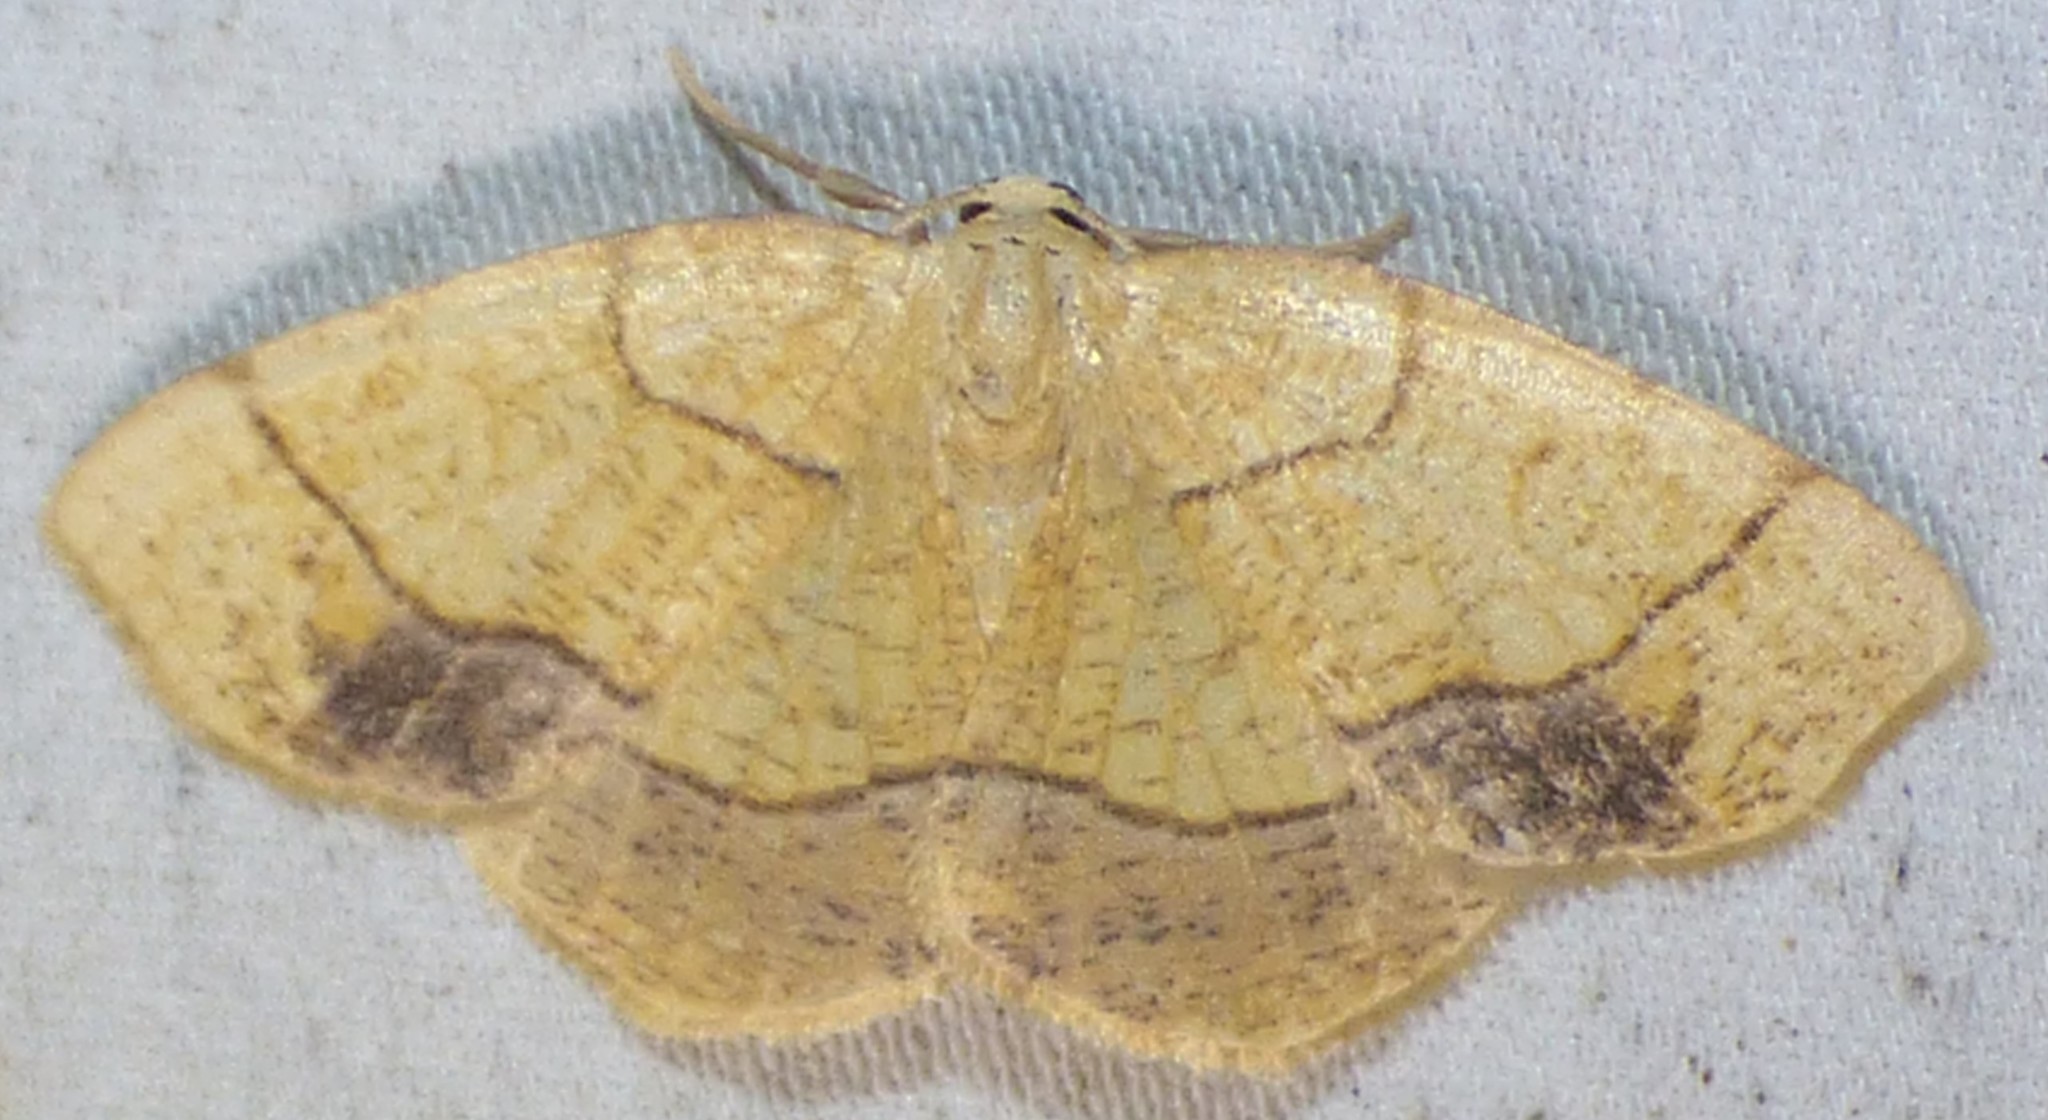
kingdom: Animalia
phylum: Arthropoda
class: Insecta
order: Lepidoptera
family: Geometridae
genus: Nematocampa
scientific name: Nematocampa resistaria
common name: Horned spanworm moth
